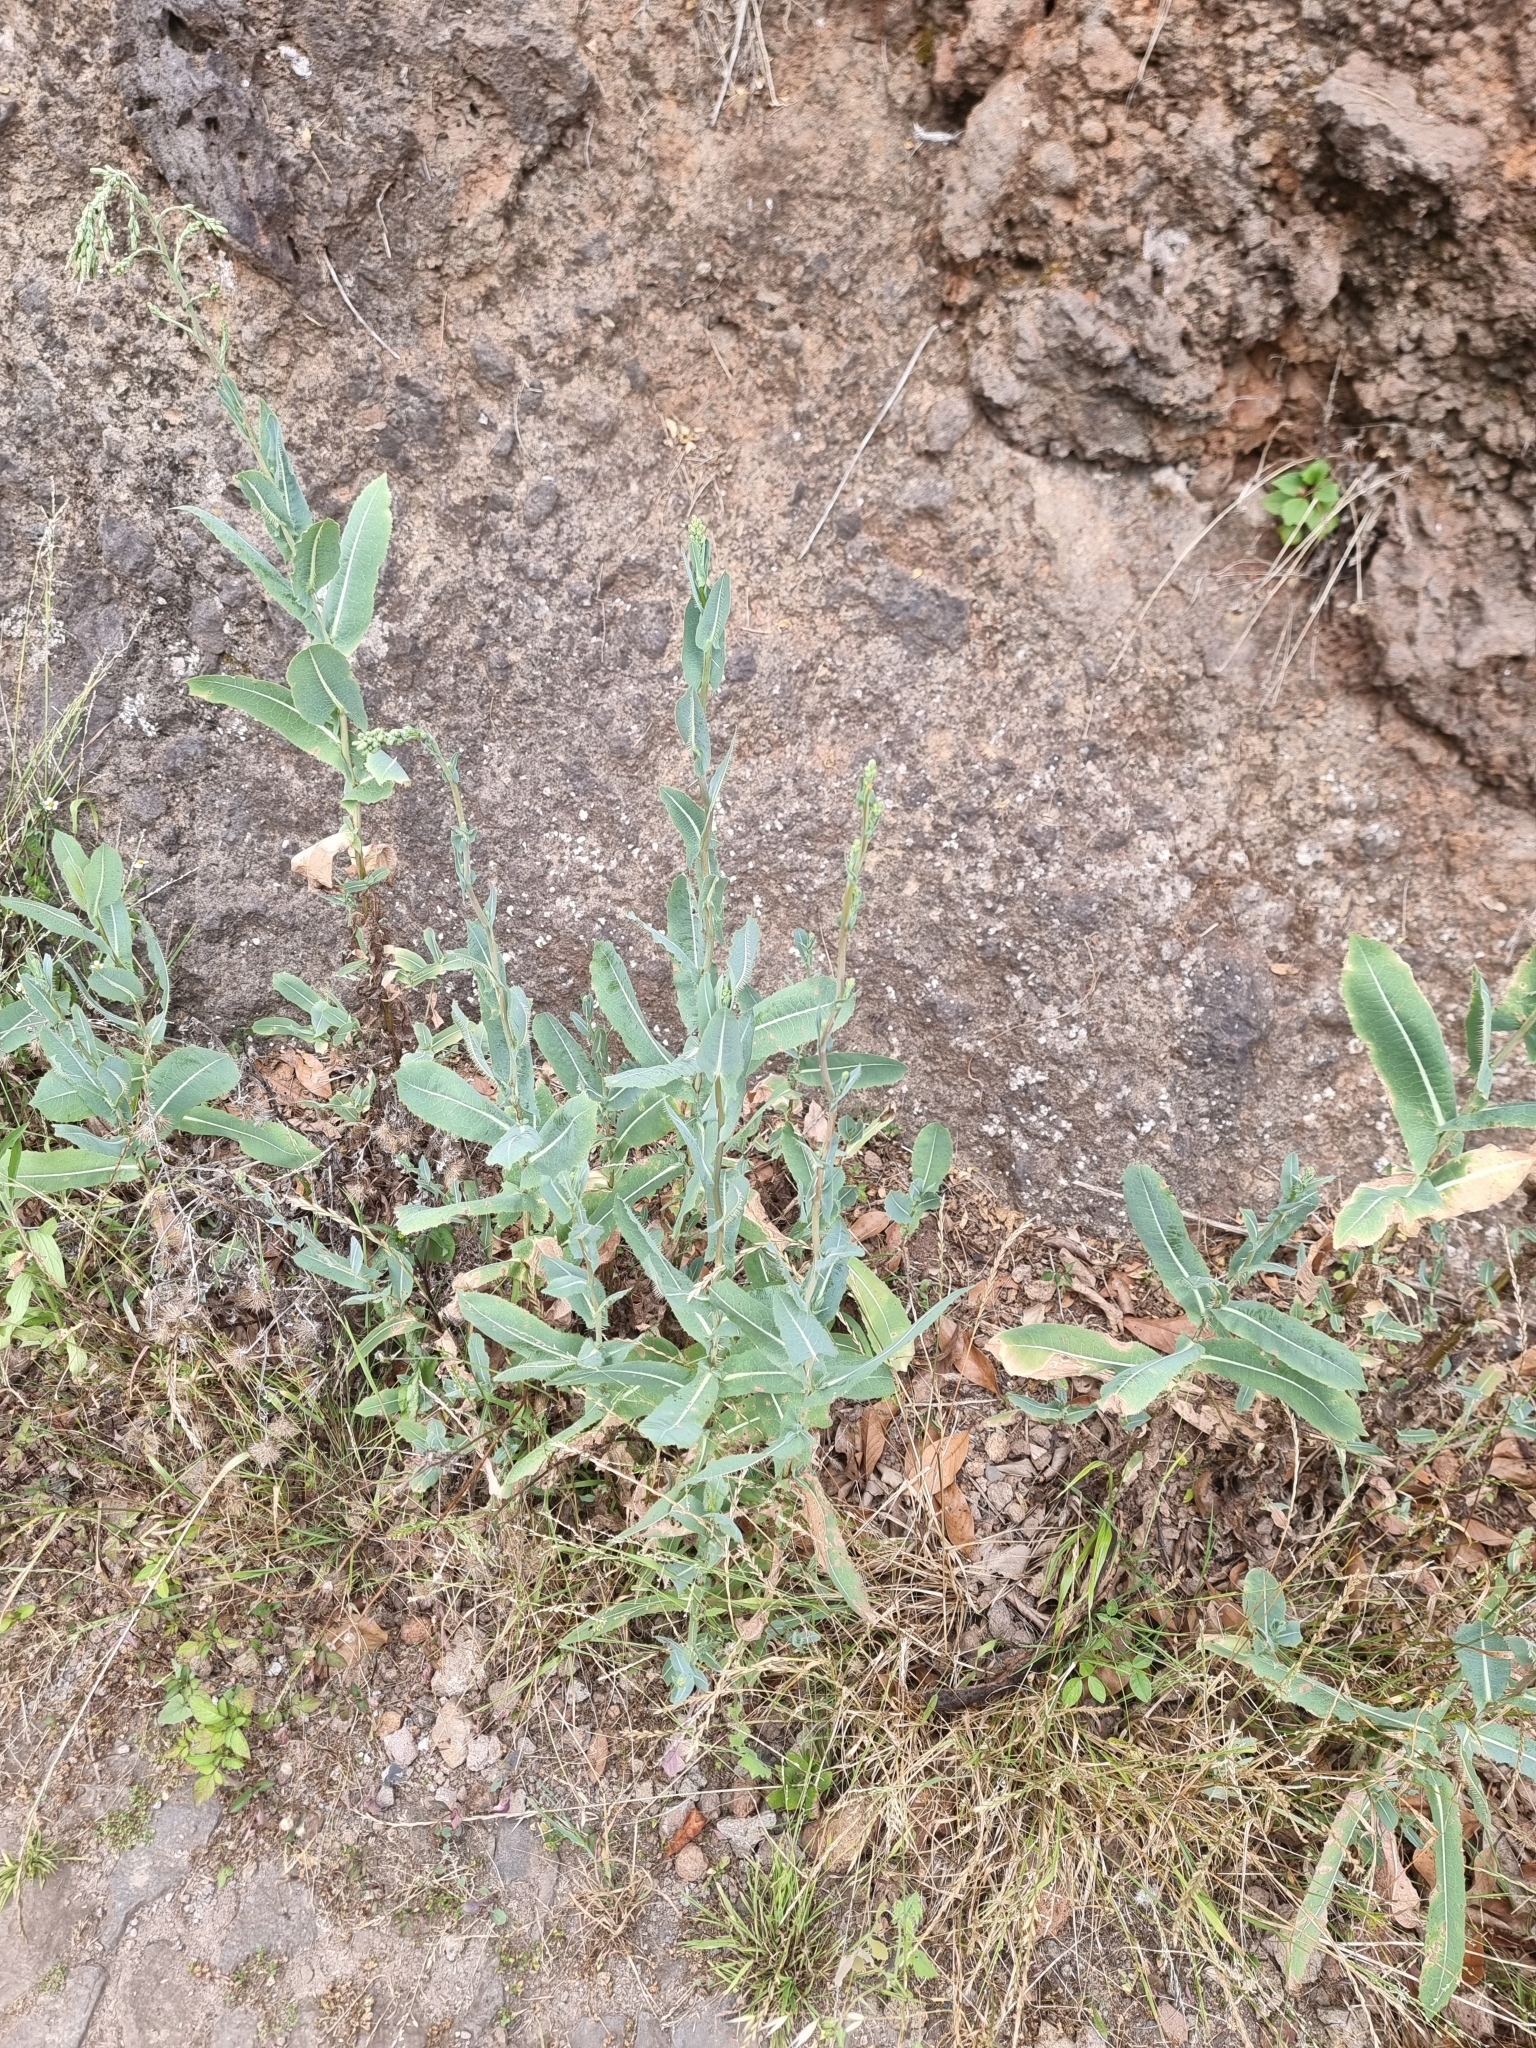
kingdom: Plantae
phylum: Tracheophyta
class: Magnoliopsida
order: Asterales
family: Asteraceae
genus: Lactuca
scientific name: Lactuca serriola
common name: Prickly lettuce
